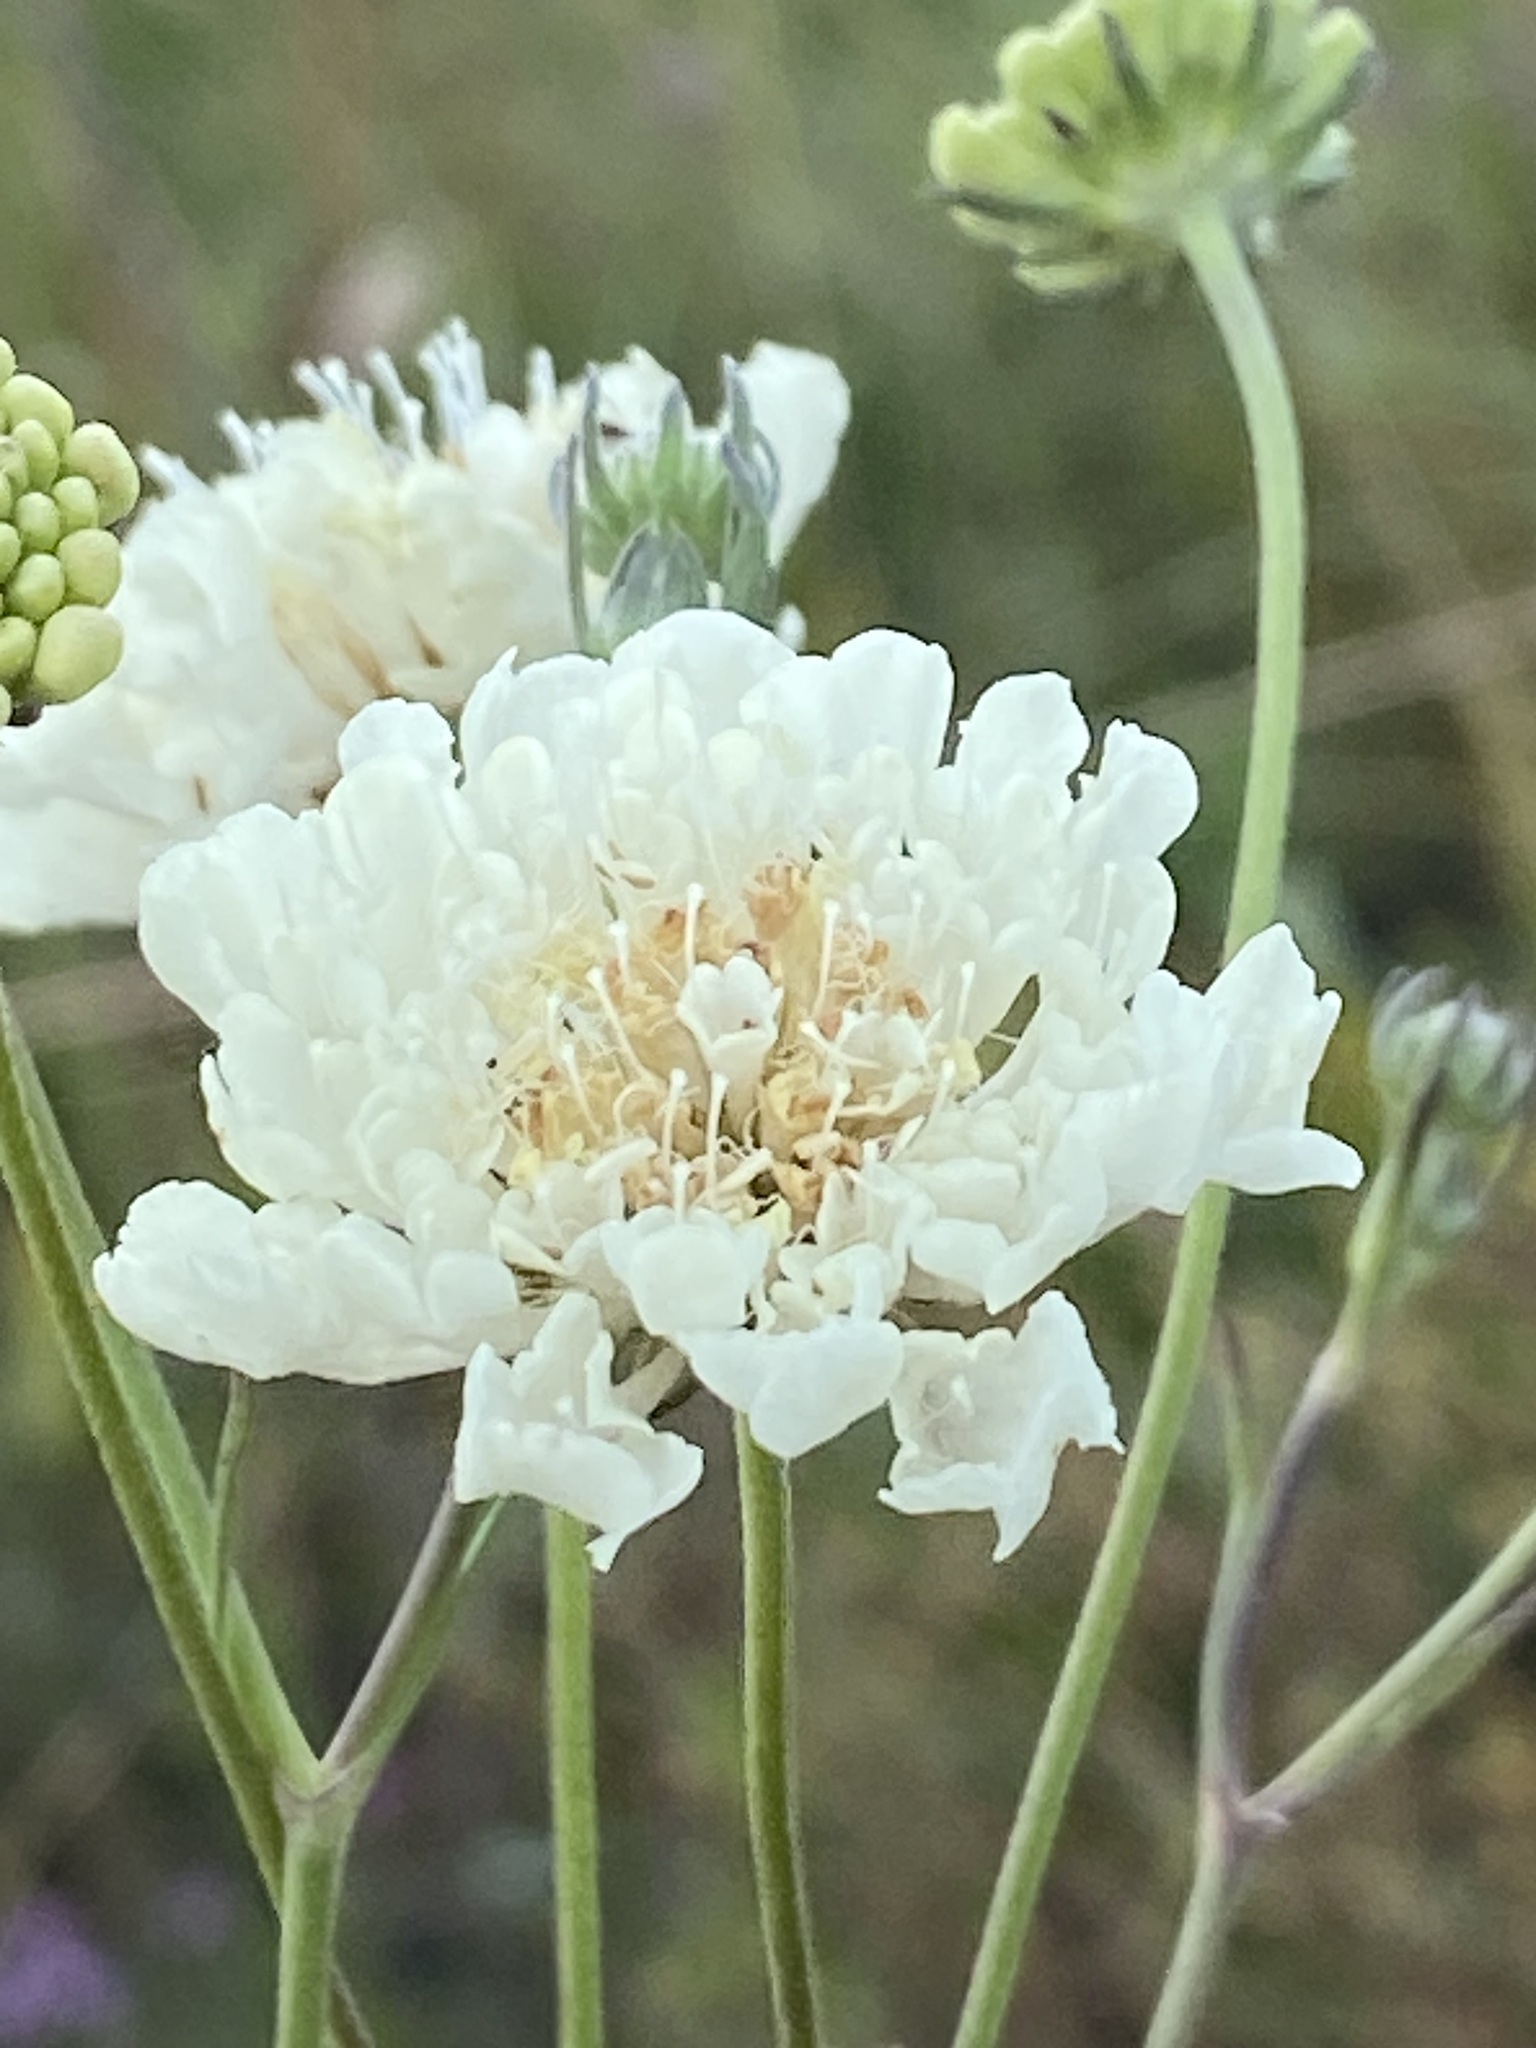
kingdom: Plantae
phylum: Tracheophyta
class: Magnoliopsida
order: Dipsacales
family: Caprifoliaceae
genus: Scabiosa
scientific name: Scabiosa ochroleuca
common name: Cream pincushions
